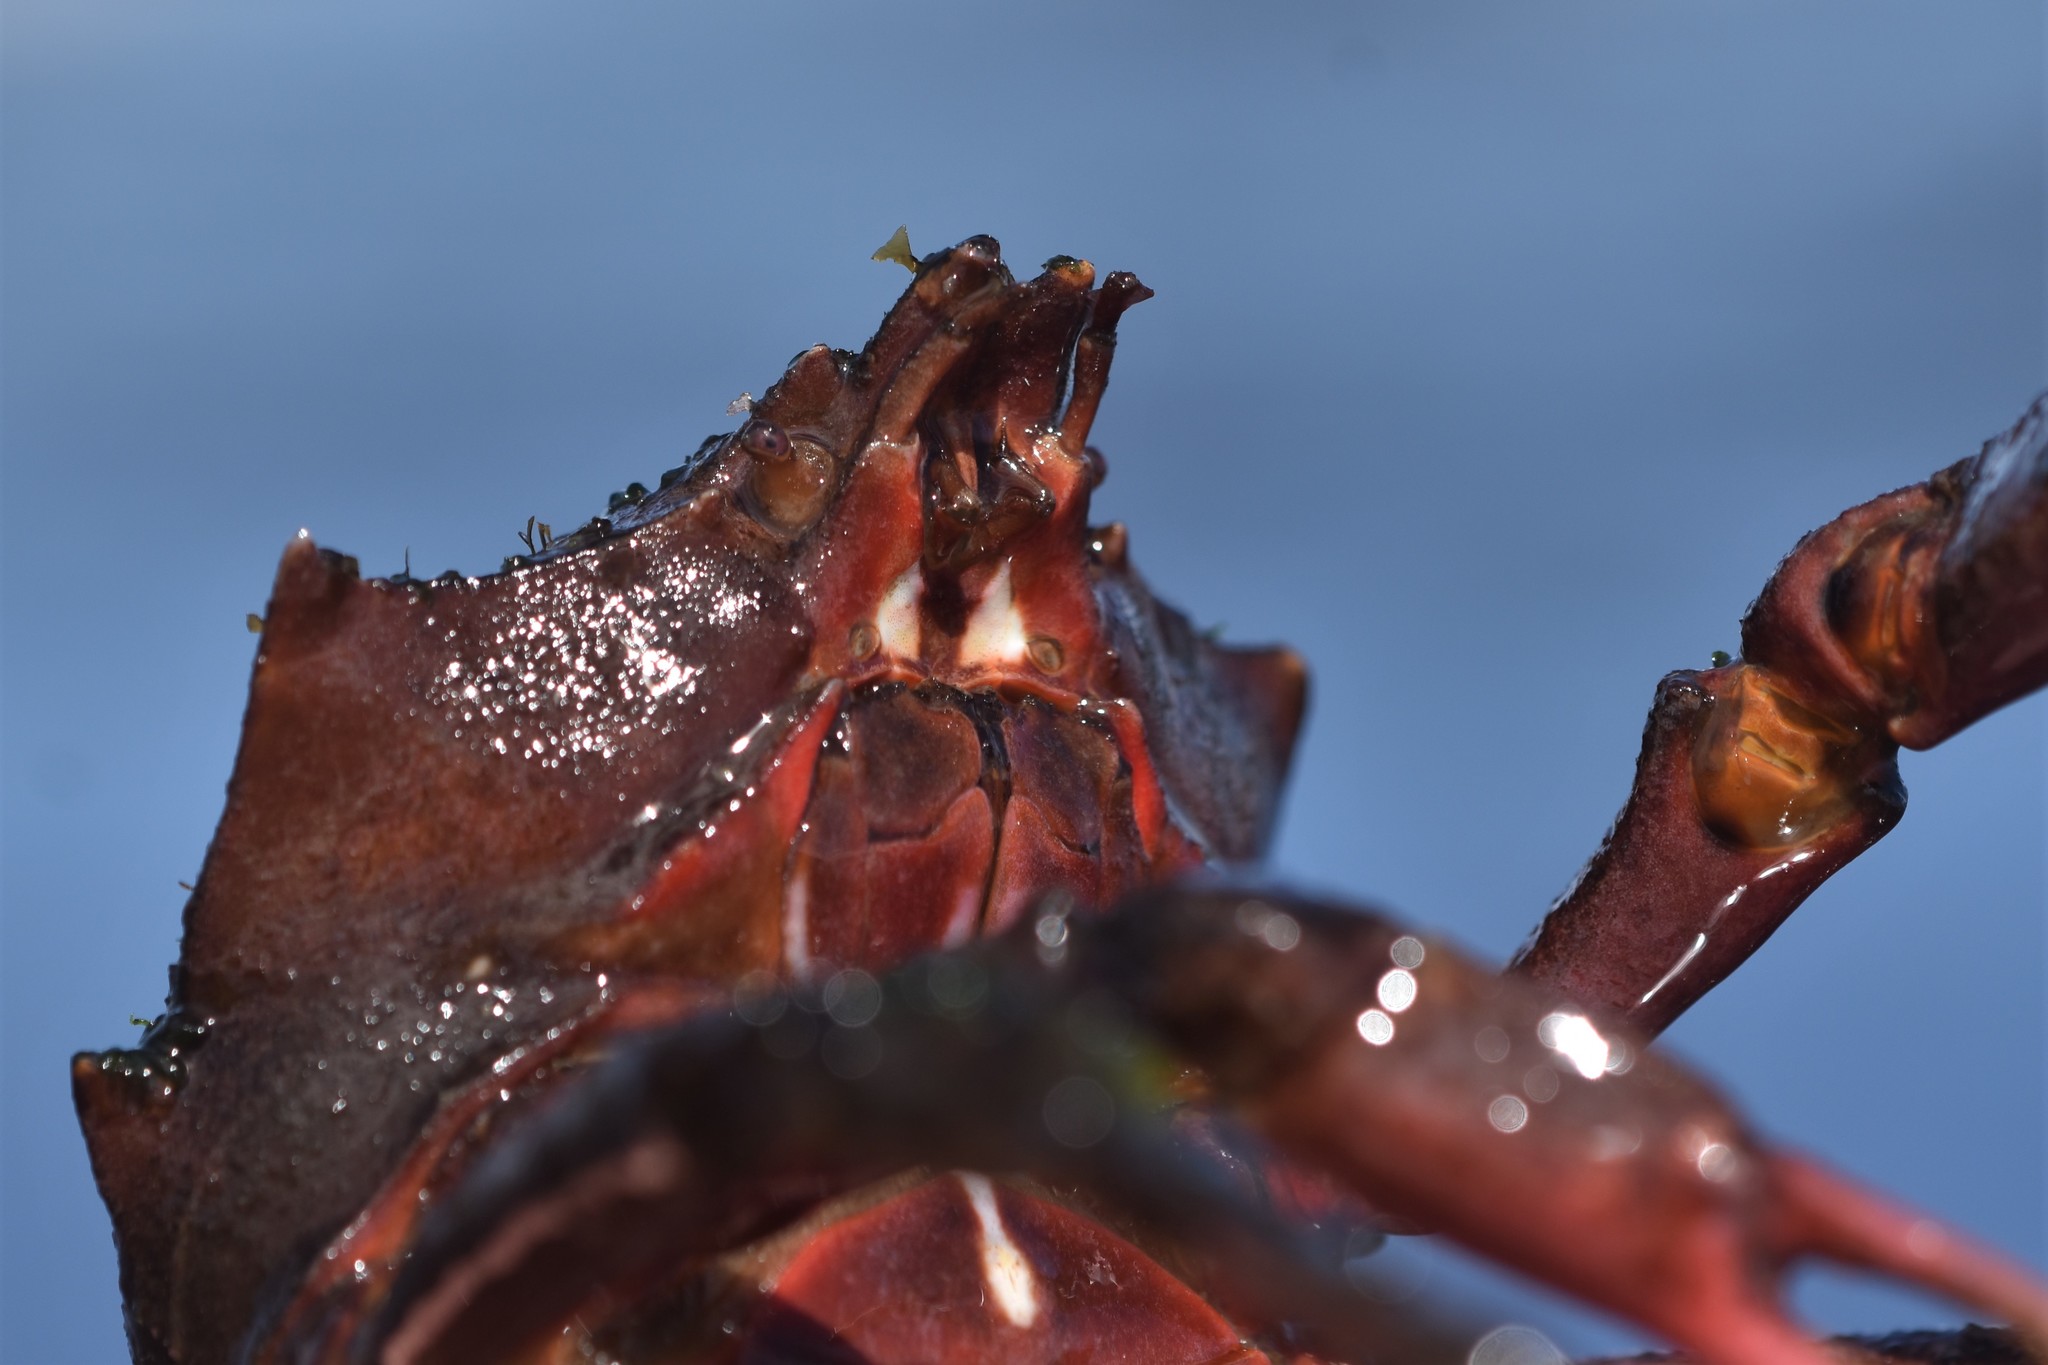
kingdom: Animalia
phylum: Arthropoda
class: Malacostraca
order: Decapoda
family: Epialtidae
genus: Pugettia
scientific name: Pugettia producta
